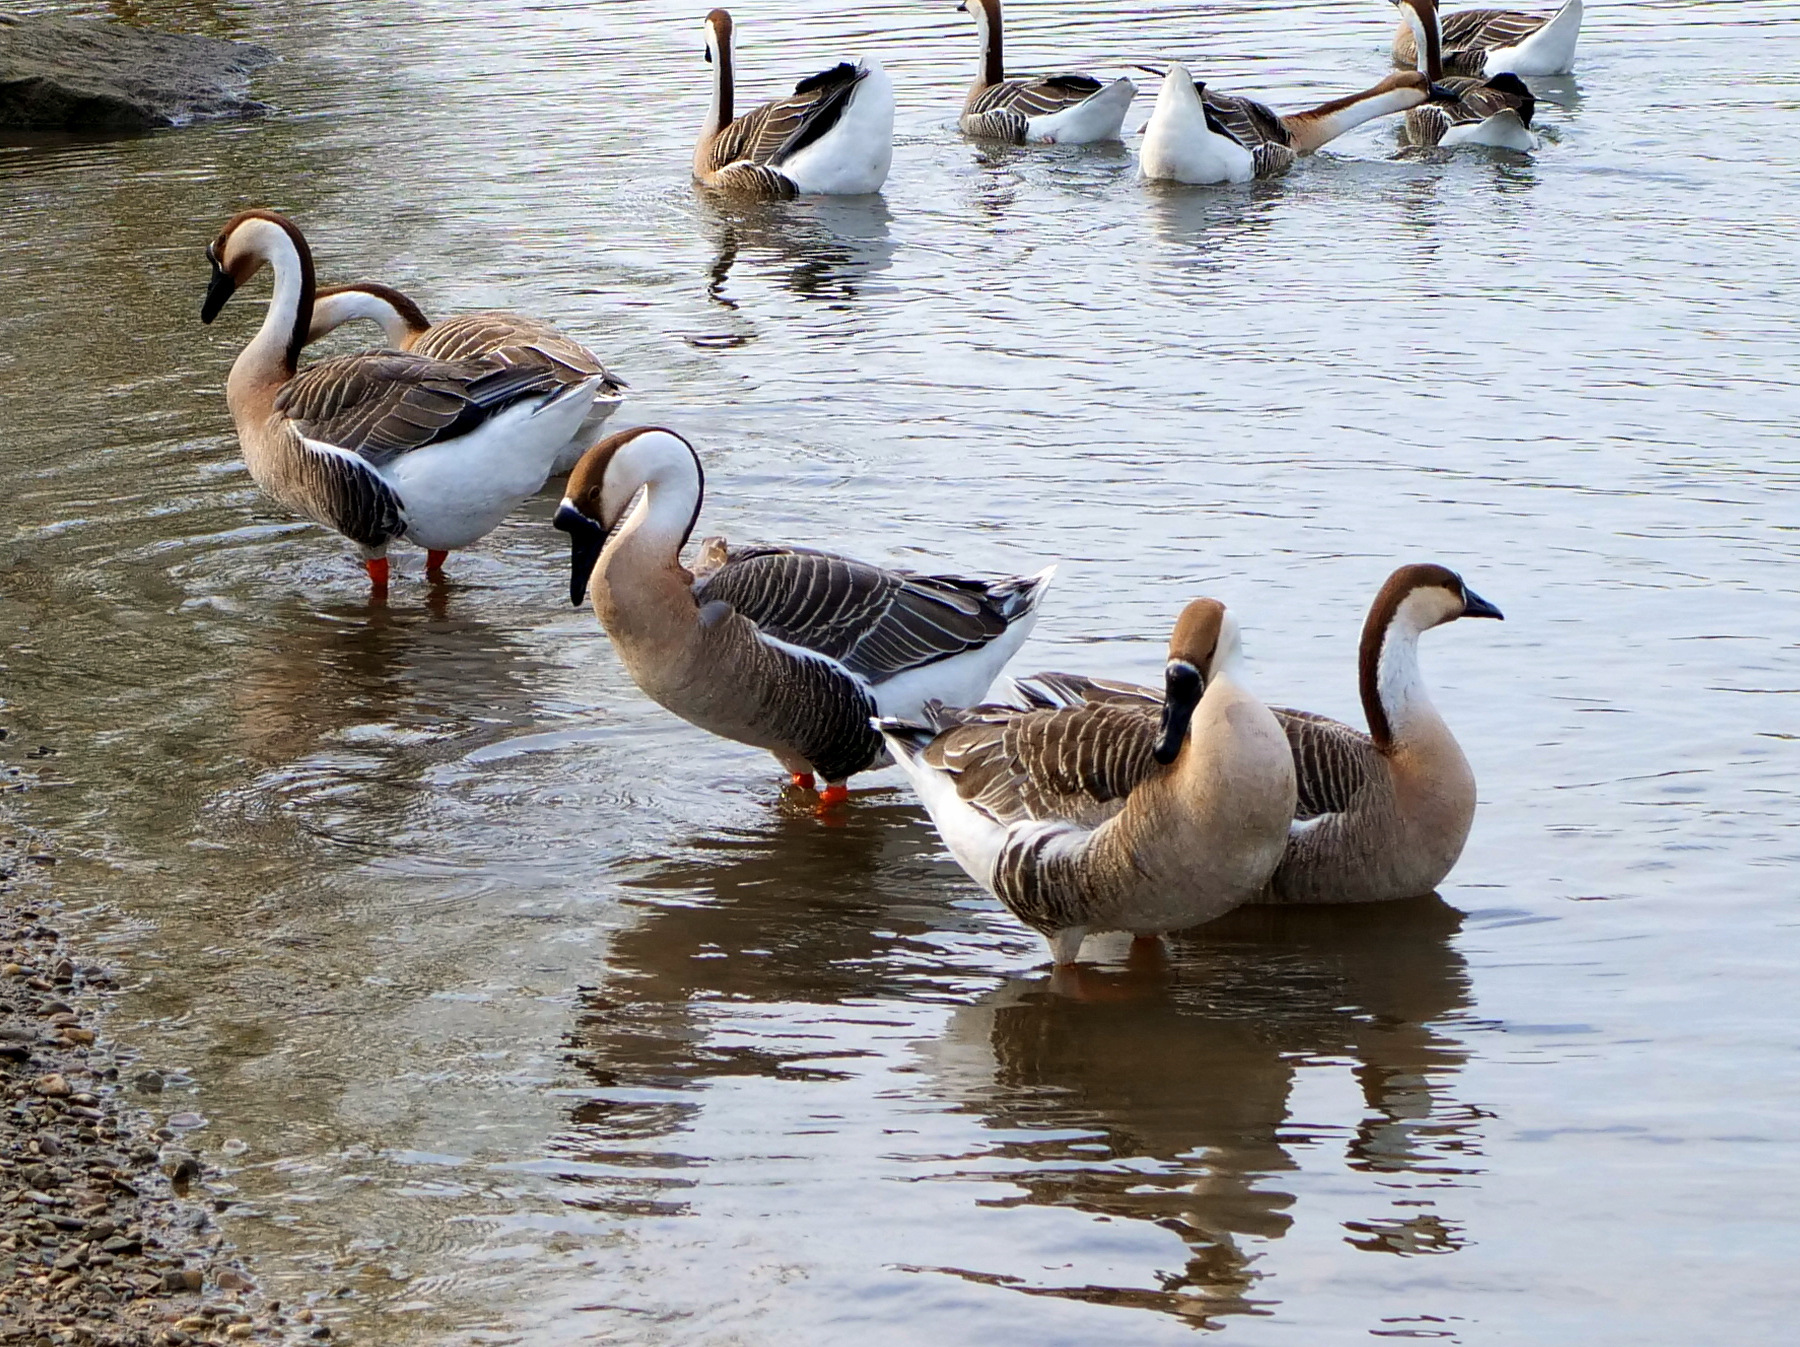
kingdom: Animalia
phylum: Chordata
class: Aves
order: Anseriformes
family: Anatidae
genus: Anser
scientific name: Anser cygnoides
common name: Swan goose
